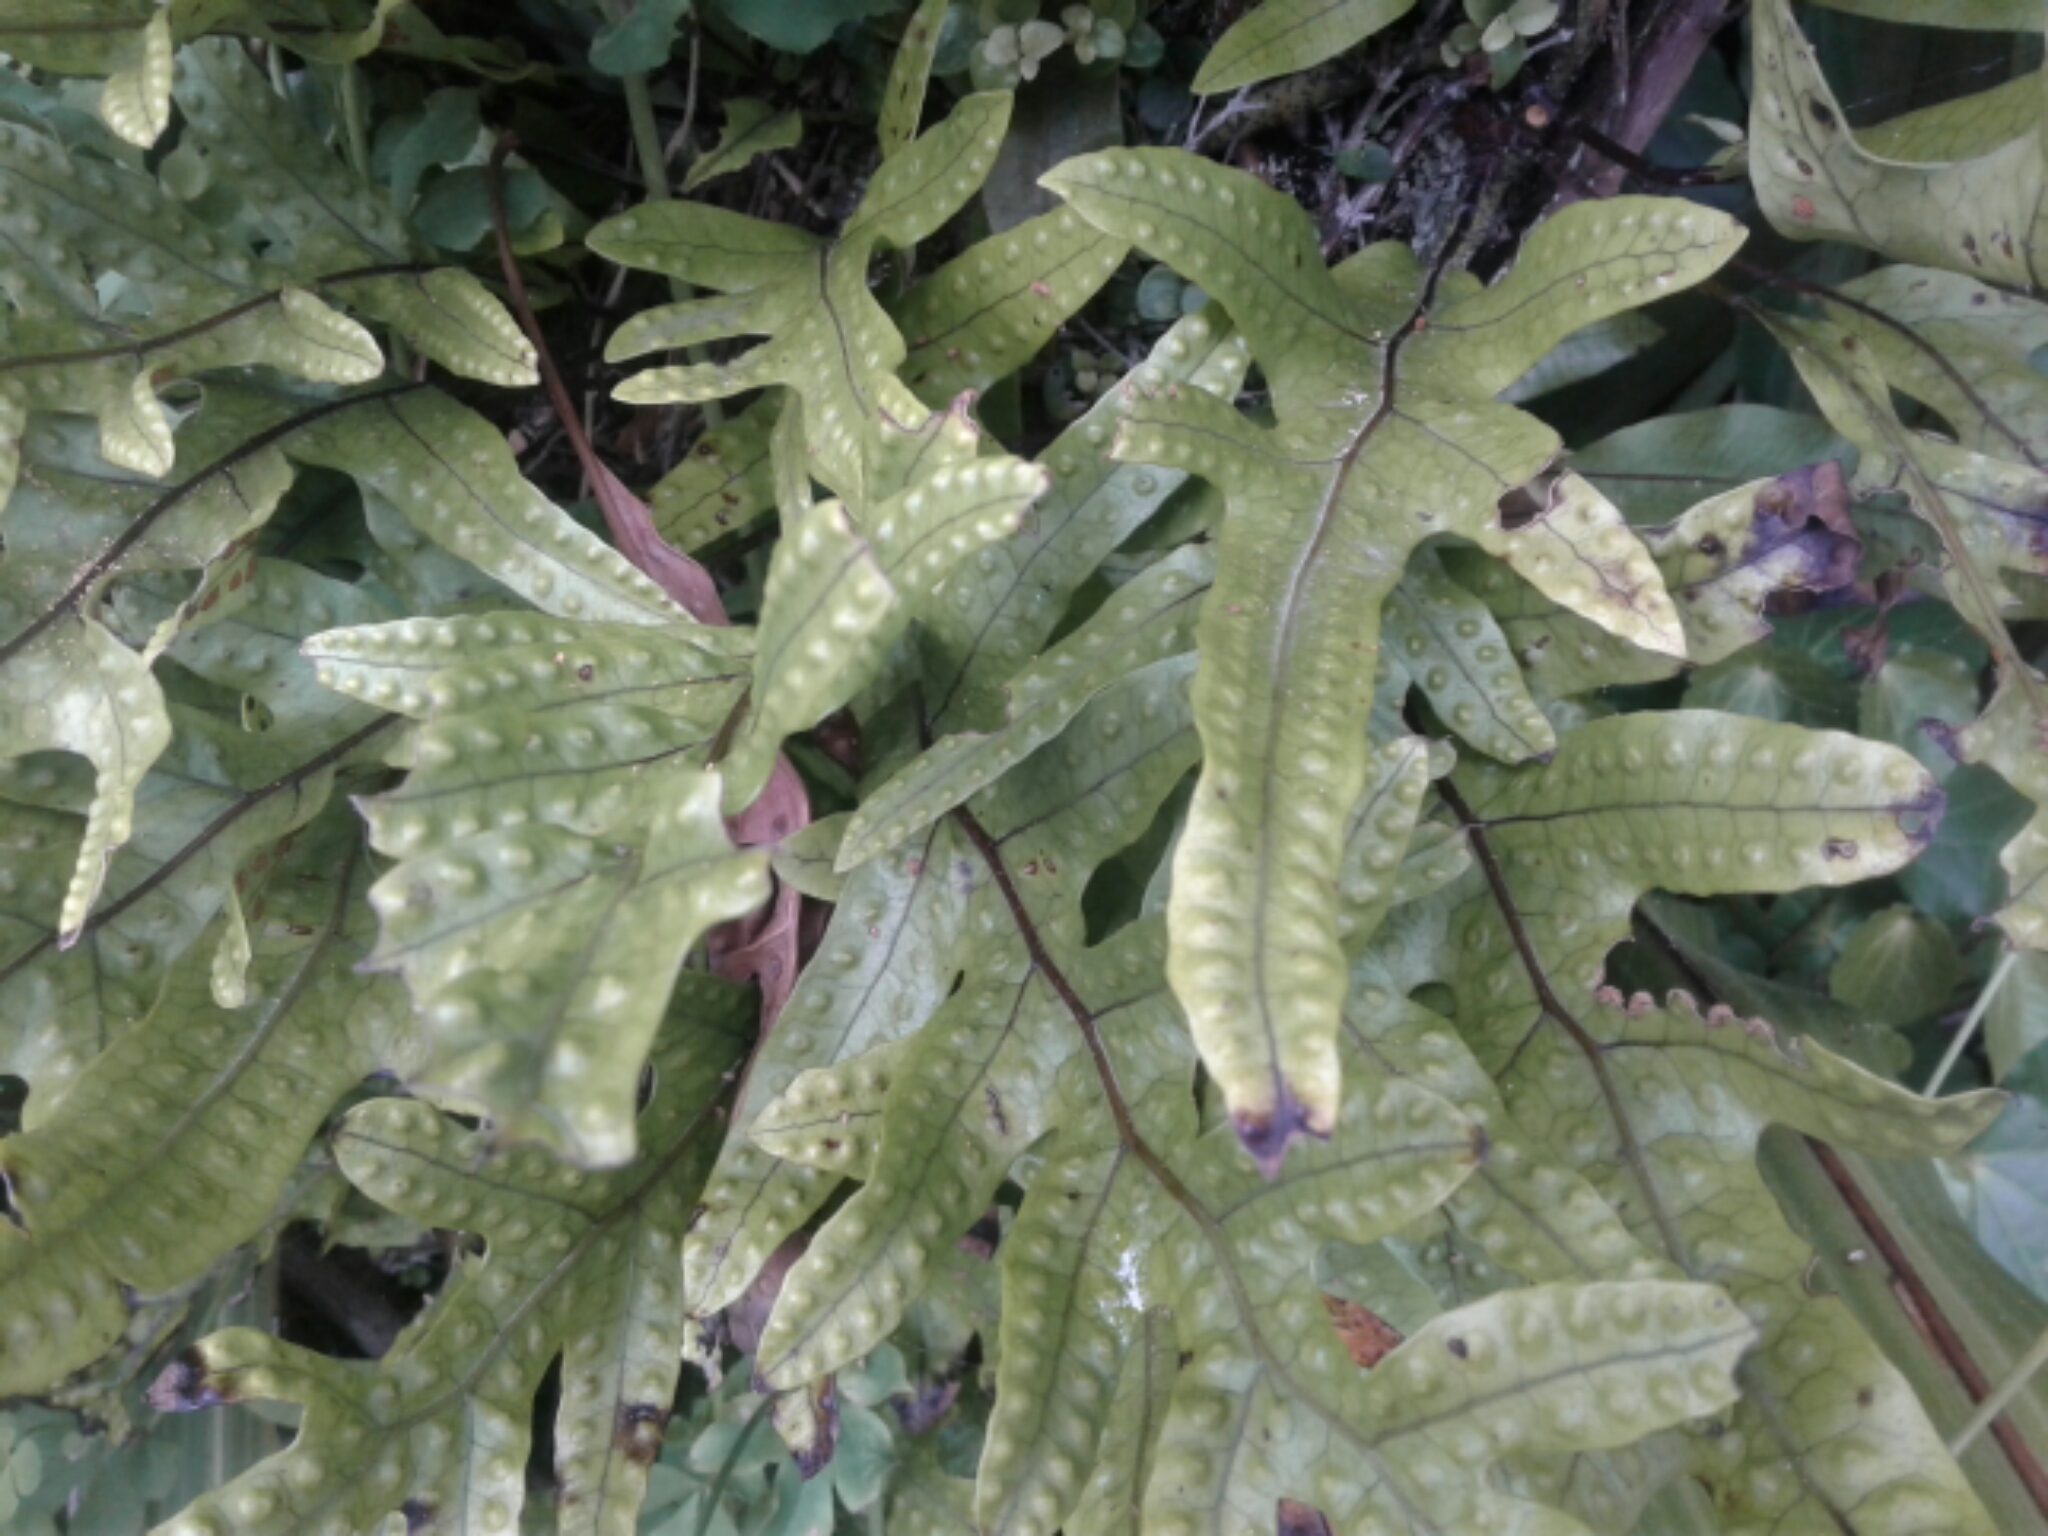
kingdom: Plantae
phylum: Tracheophyta
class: Polypodiopsida
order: Polypodiales
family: Polypodiaceae
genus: Lecanopteris
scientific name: Lecanopteris pustulata
